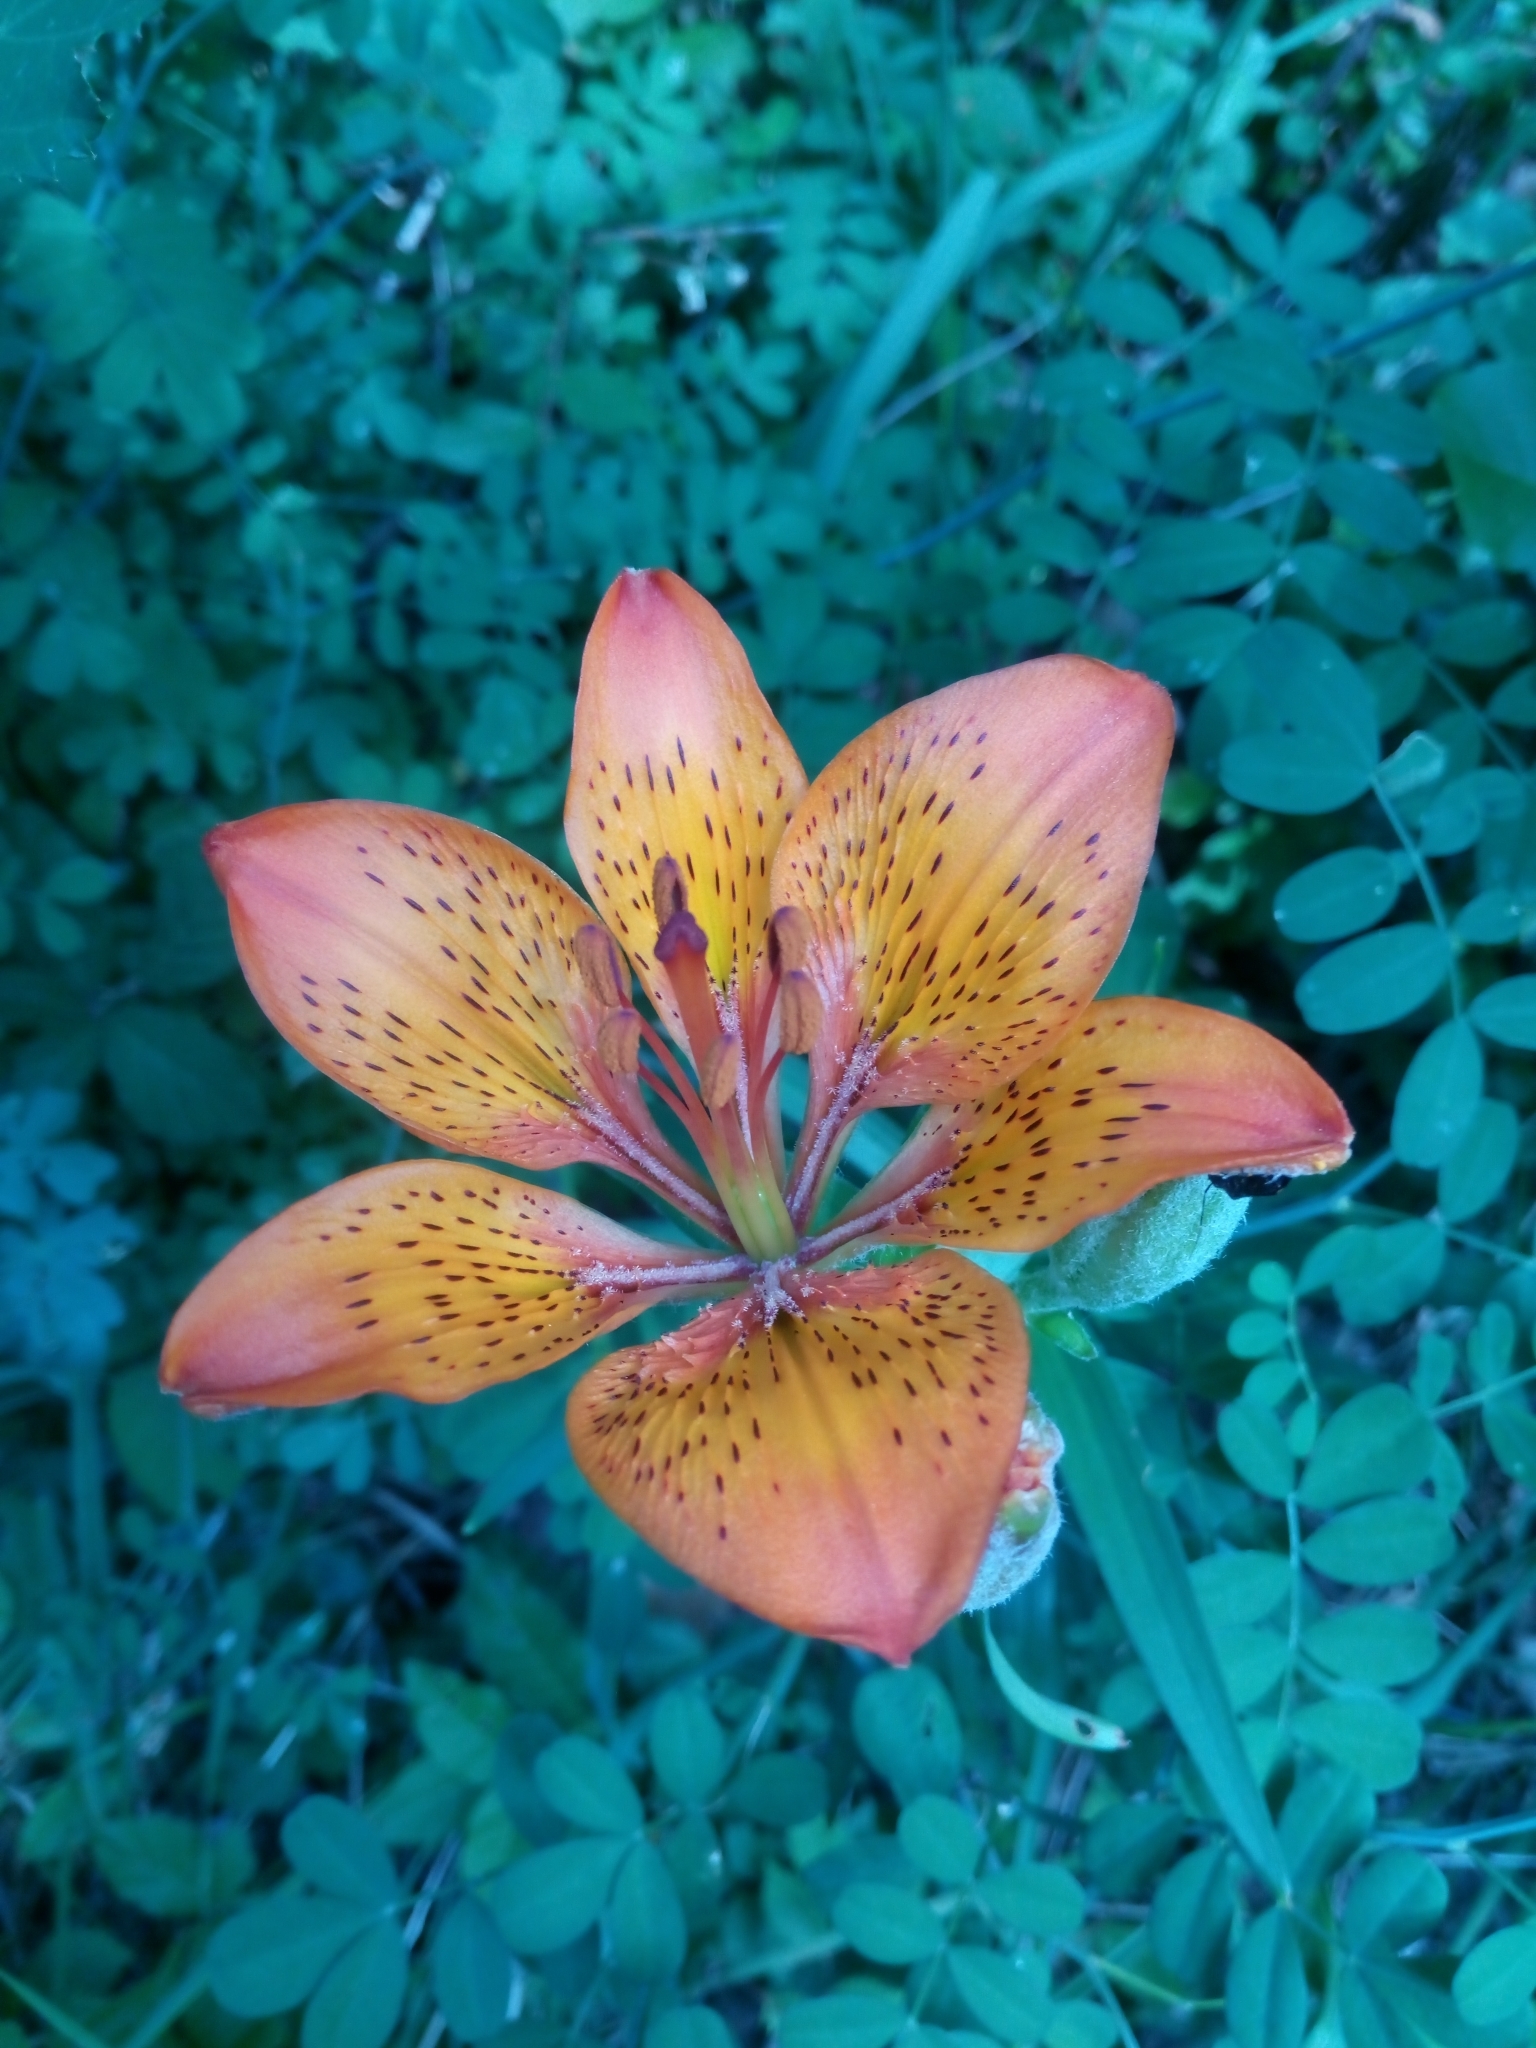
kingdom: Plantae
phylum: Tracheophyta
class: Liliopsida
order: Liliales
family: Liliaceae
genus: Lilium
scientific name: Lilium bulbiferum
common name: Orange lily
